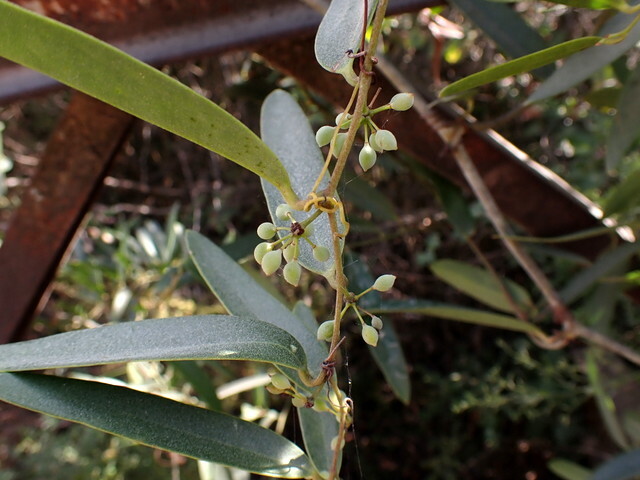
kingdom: Plantae
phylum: Tracheophyta
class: Liliopsida
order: Liliales
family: Smilacaceae
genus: Smilax
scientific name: Smilax laurifolia
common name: Bamboovine
